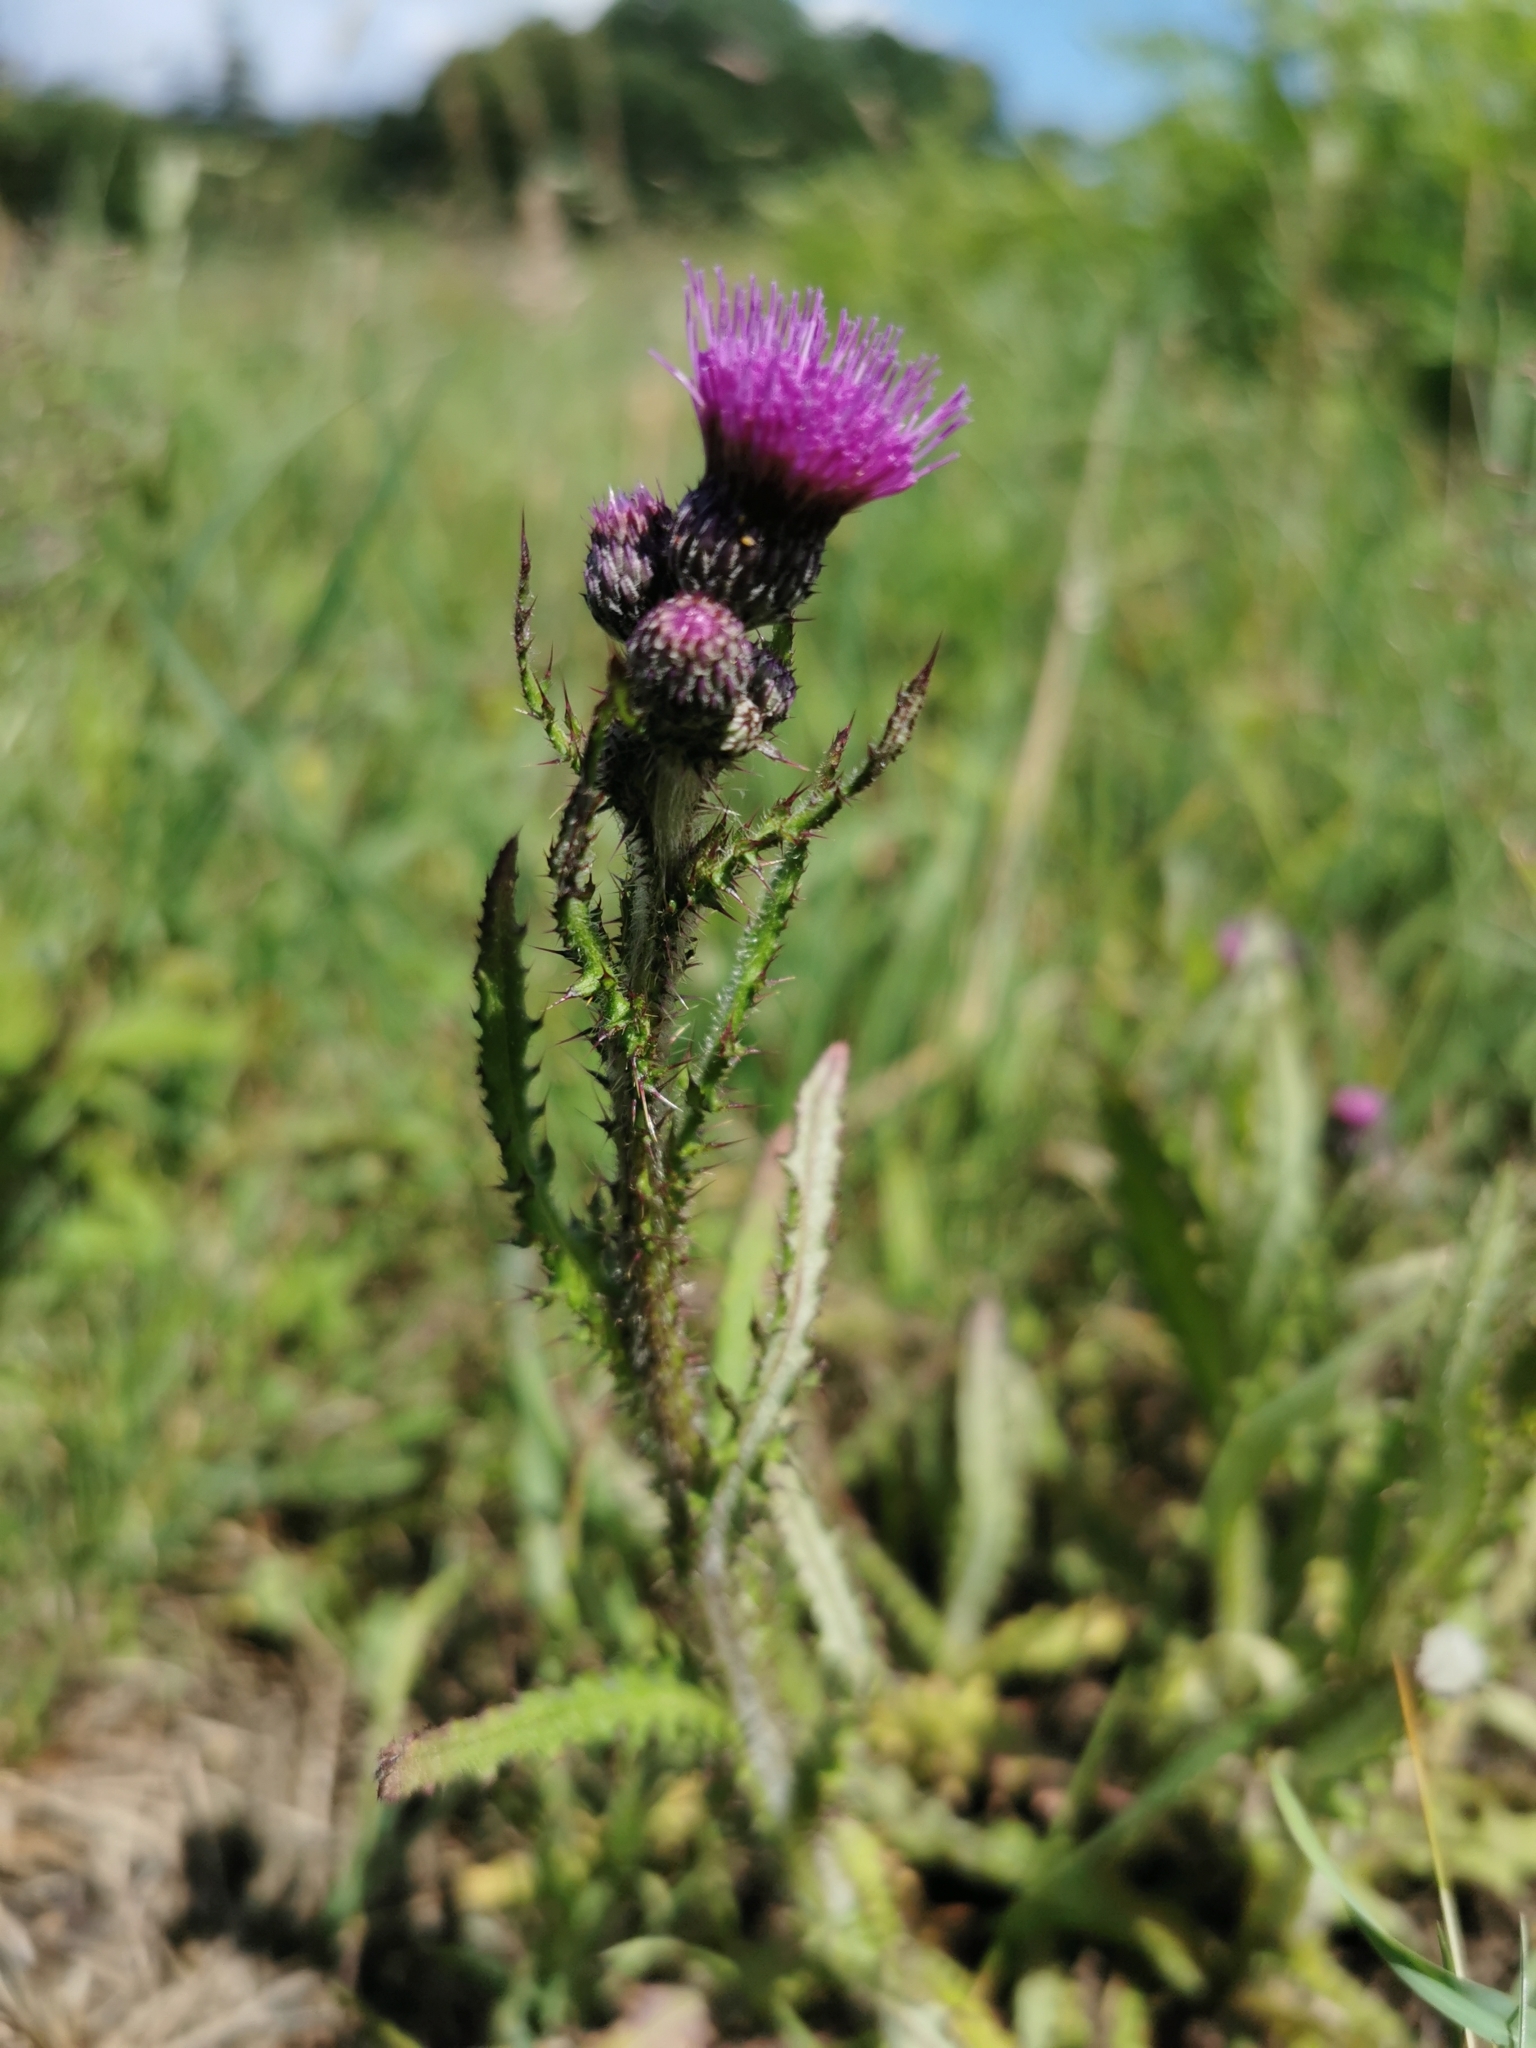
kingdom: Plantae
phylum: Tracheophyta
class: Magnoliopsida
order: Asterales
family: Asteraceae
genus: Cirsium
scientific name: Cirsium palustre
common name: Marsh thistle
